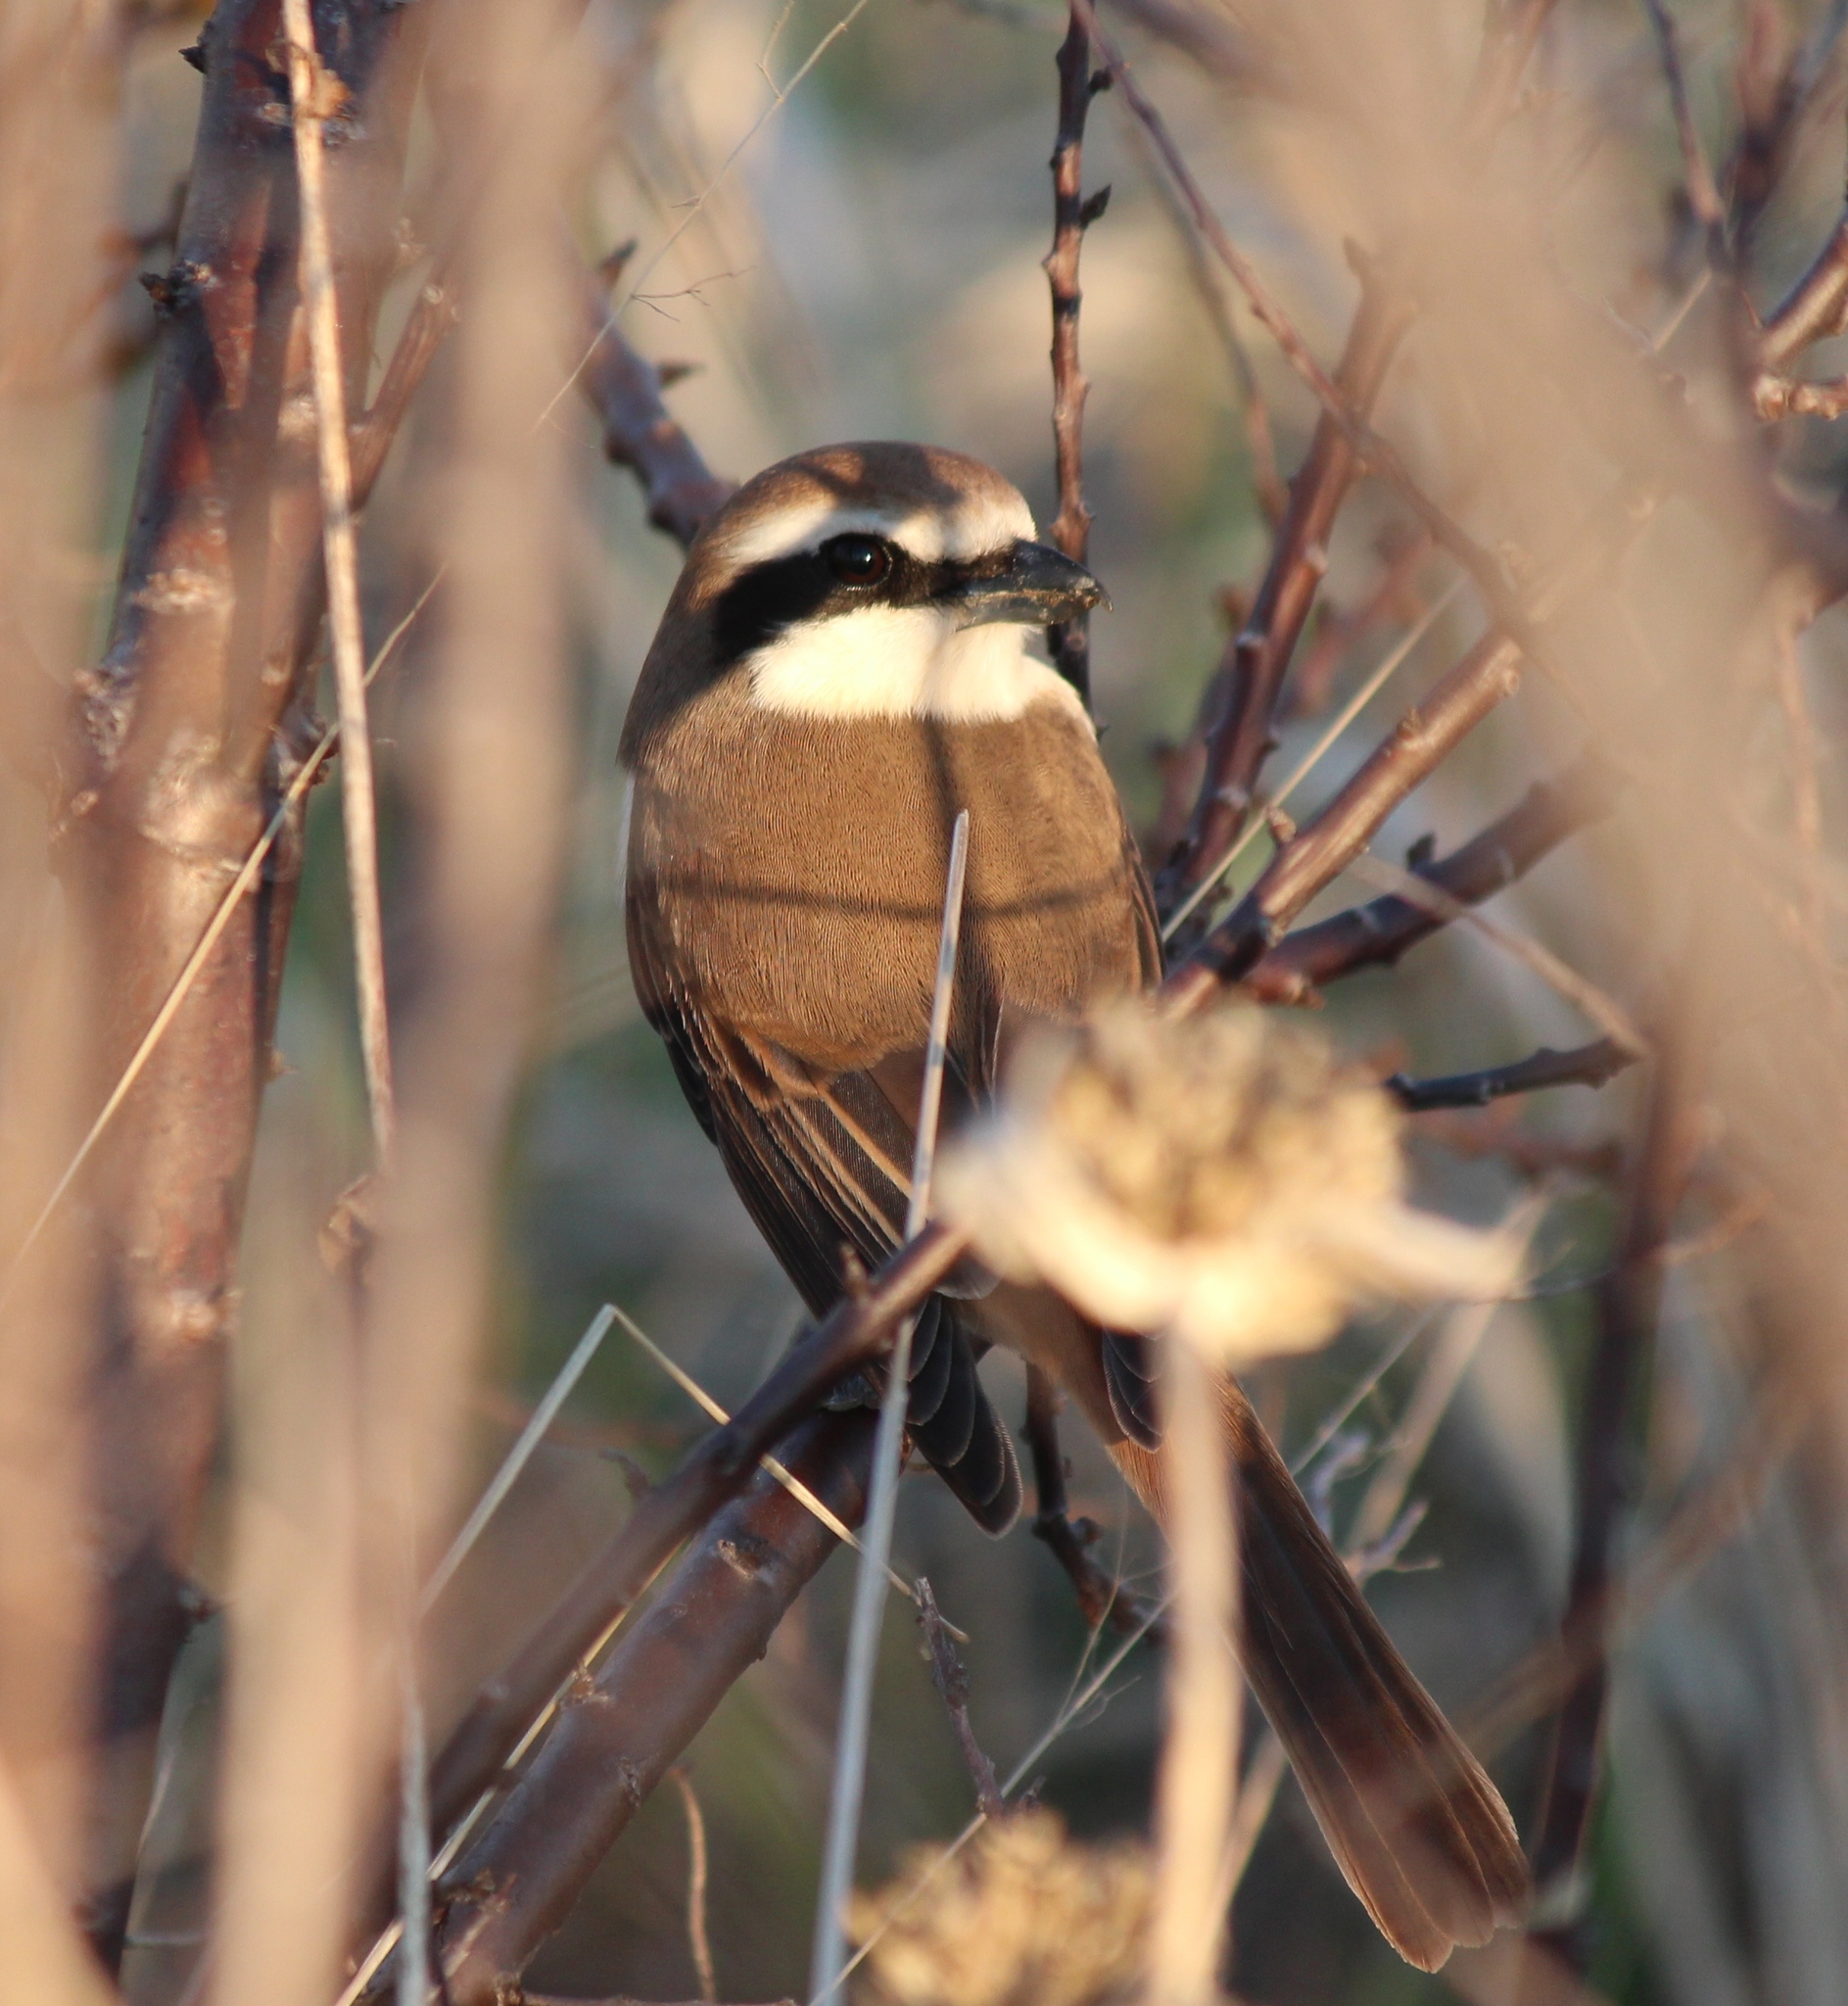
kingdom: Animalia
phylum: Chordata
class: Aves
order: Passeriformes
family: Laniidae
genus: Lanius
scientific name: Lanius cristatus
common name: Brown shrike
